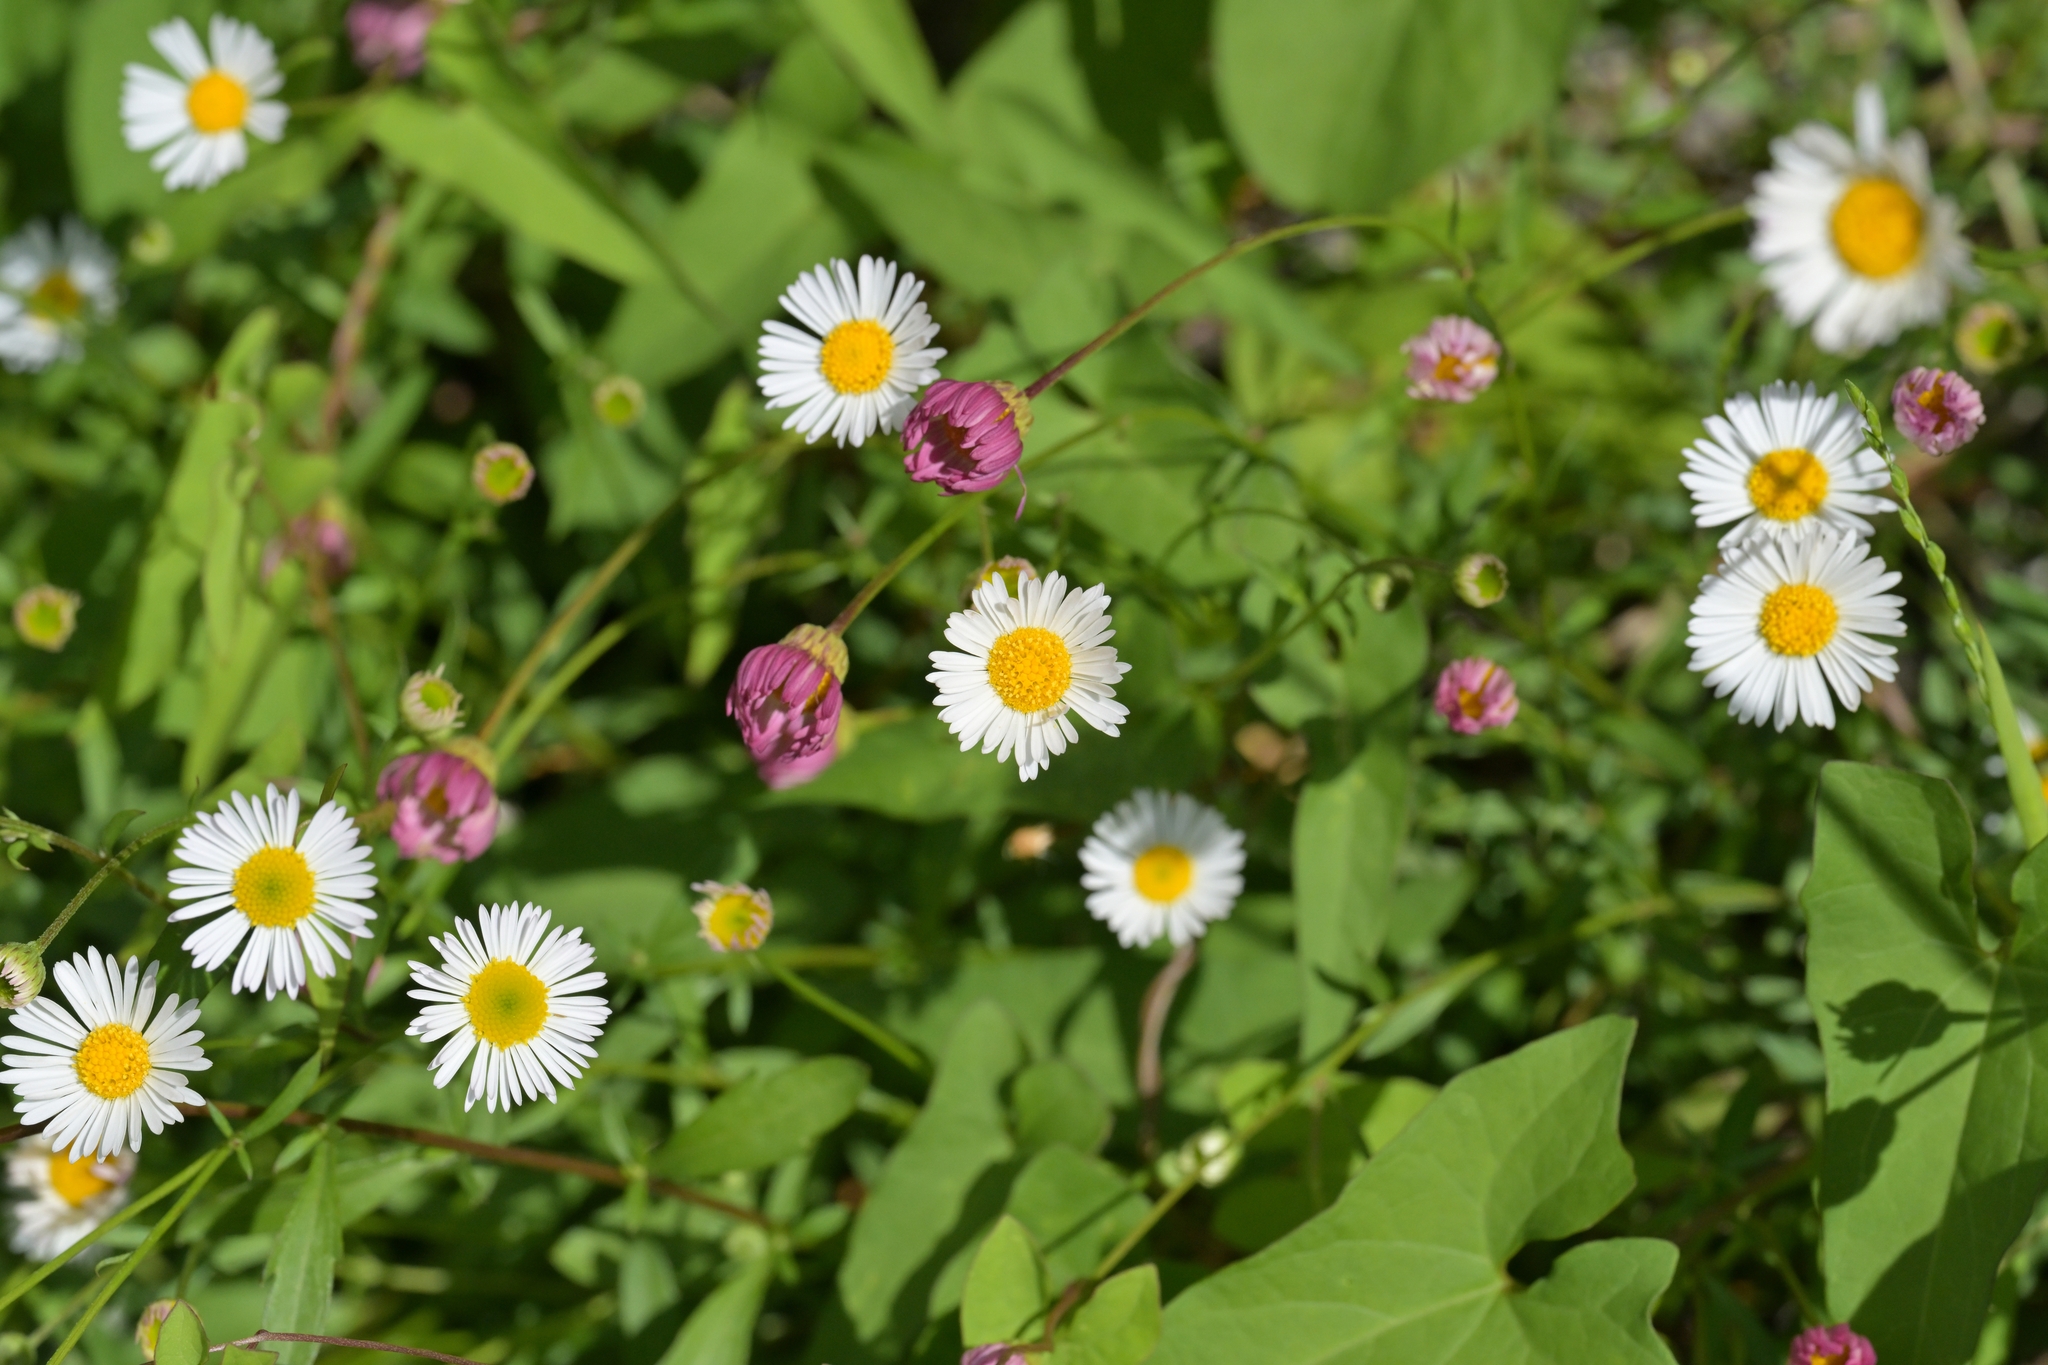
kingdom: Plantae
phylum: Tracheophyta
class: Magnoliopsida
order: Asterales
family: Asteraceae
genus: Erigeron
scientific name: Erigeron karvinskianus
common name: Mexican fleabane
